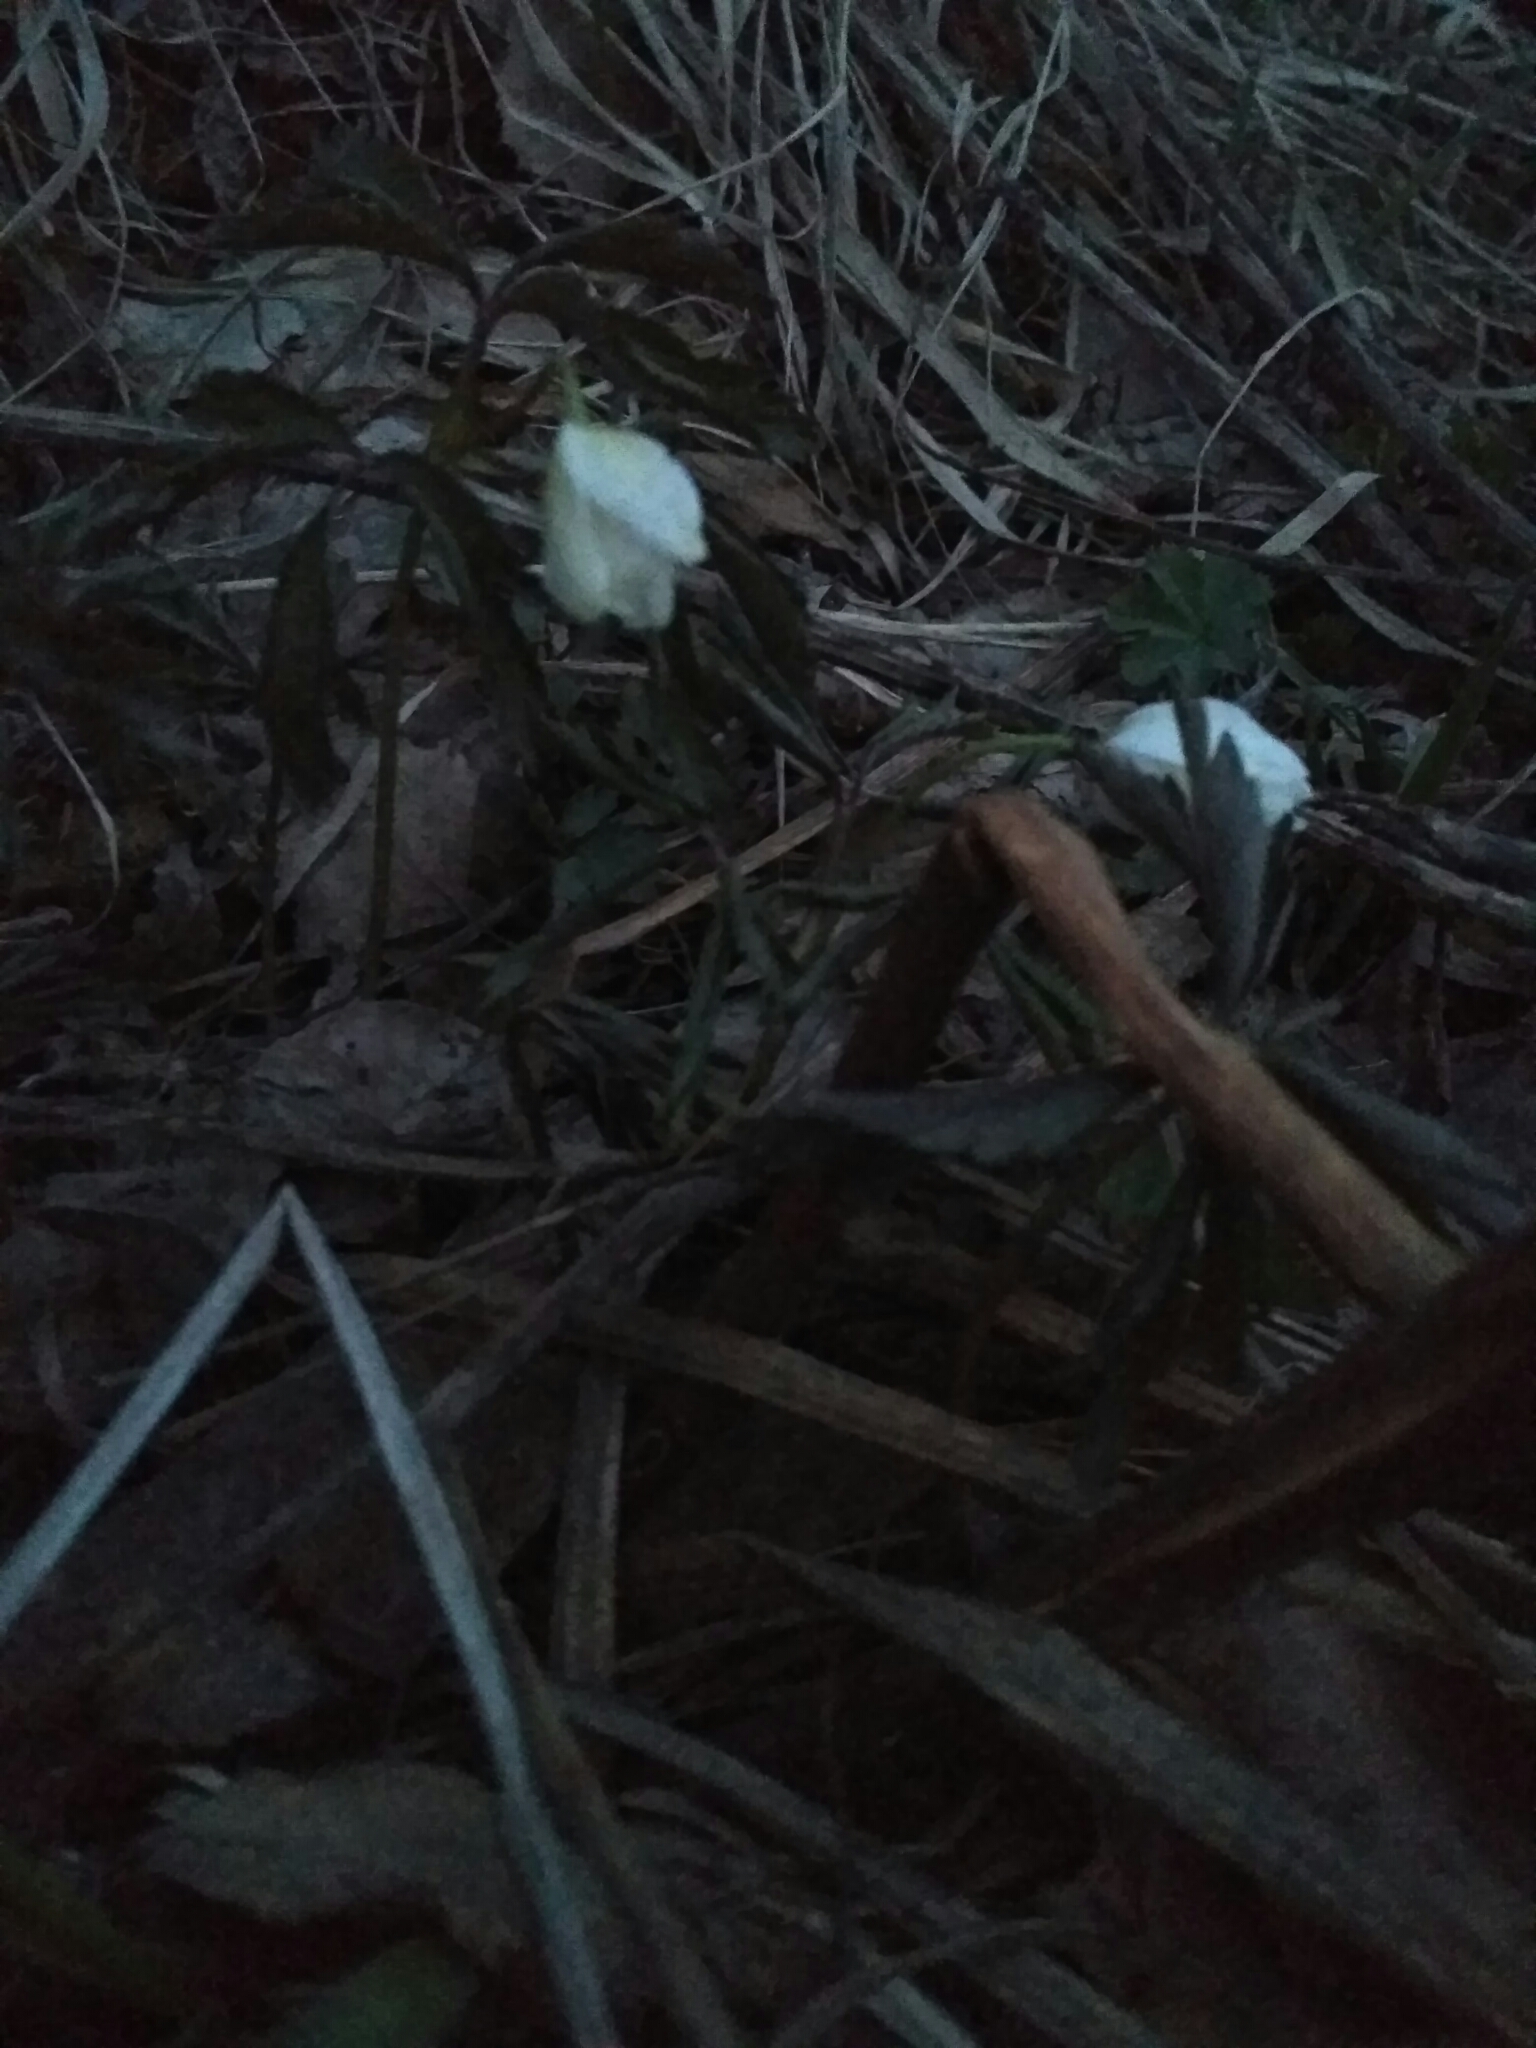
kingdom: Plantae
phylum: Tracheophyta
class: Magnoliopsida
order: Ranunculales
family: Ranunculaceae
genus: Anemone
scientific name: Anemone nemorosa
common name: Wood anemone
